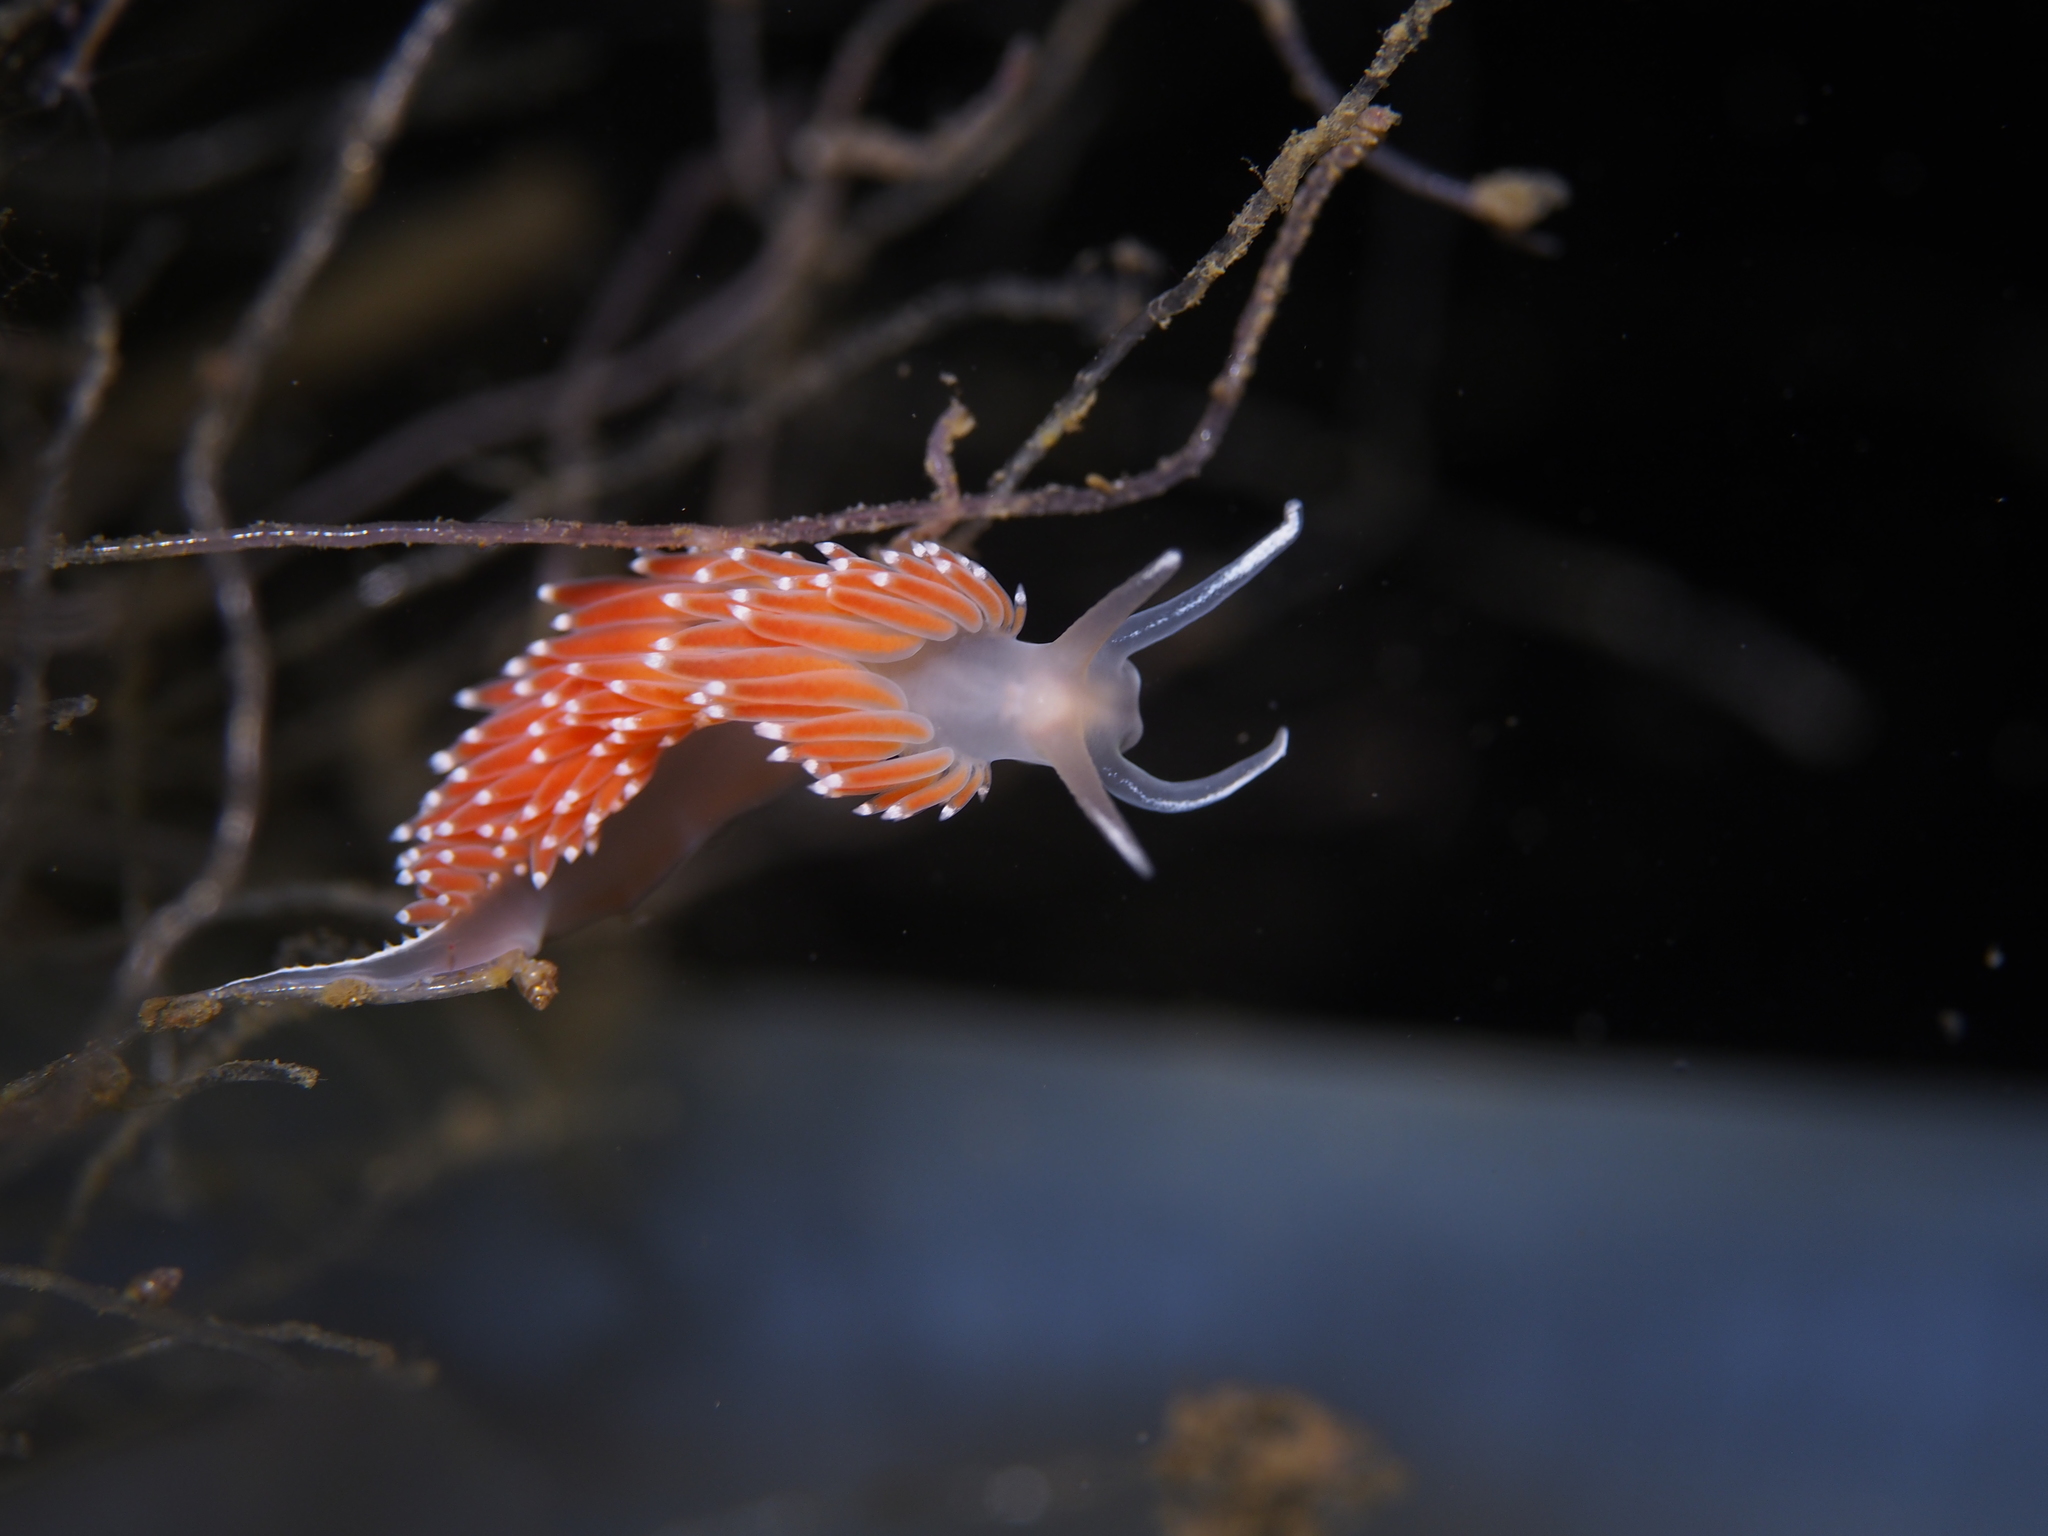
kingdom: Animalia
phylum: Mollusca
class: Gastropoda
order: Nudibranchia
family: Coryphellidae
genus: Coryphella
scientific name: Coryphella verrucosa
